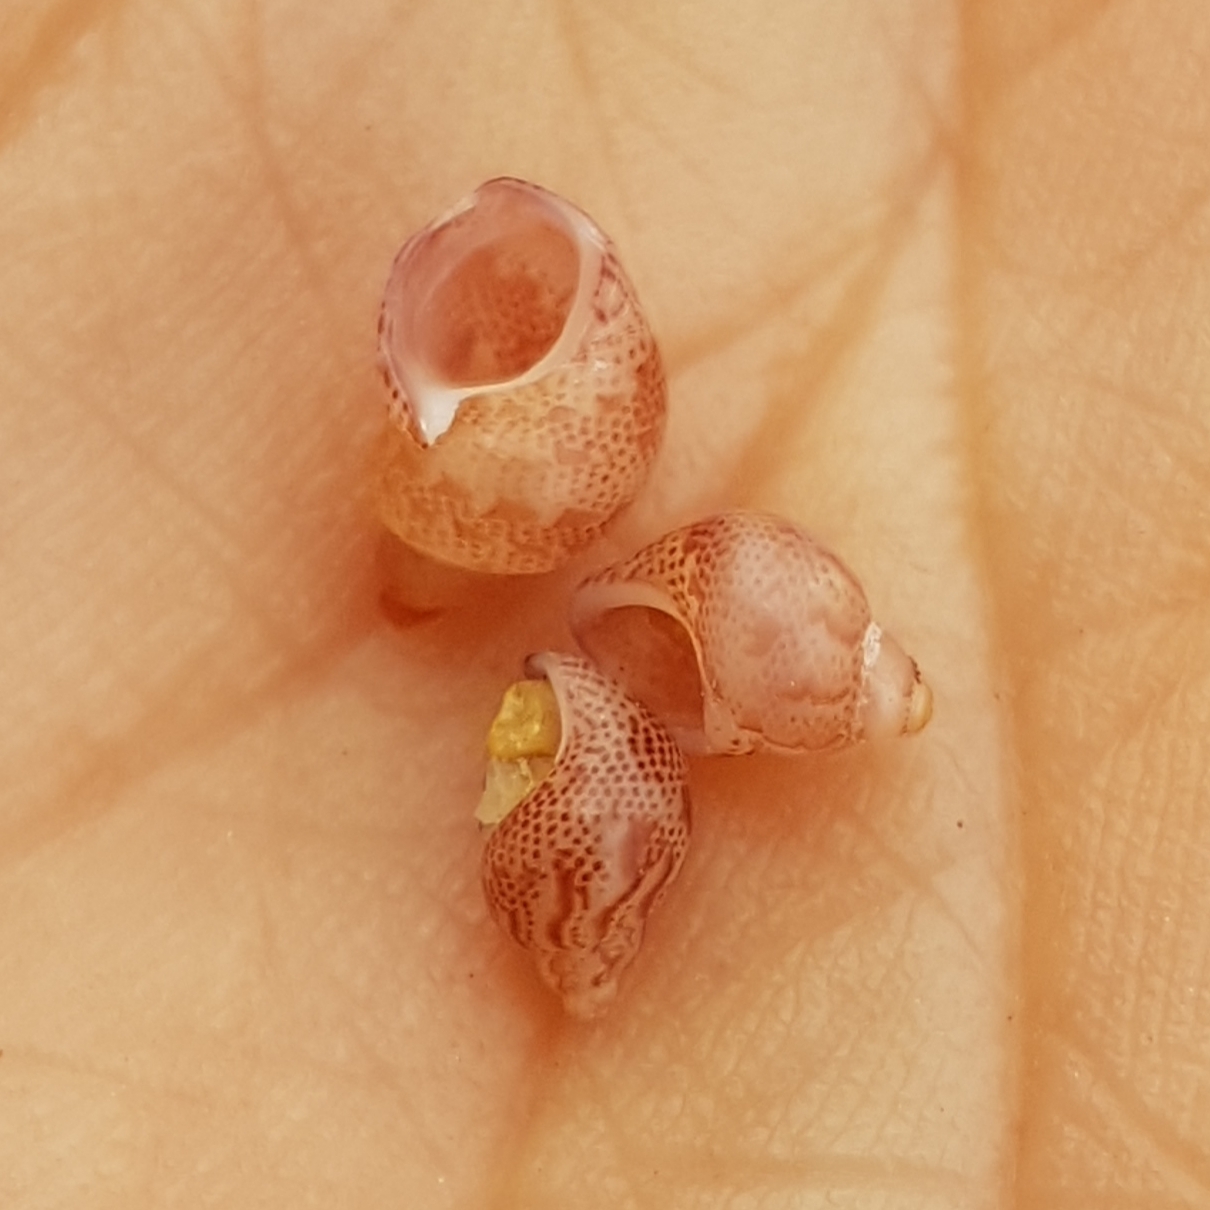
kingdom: Animalia
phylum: Mollusca
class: Gastropoda
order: Trochida
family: Phasianellidae
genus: Tricolia
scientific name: Tricolia pullus
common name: Pheasant shell
